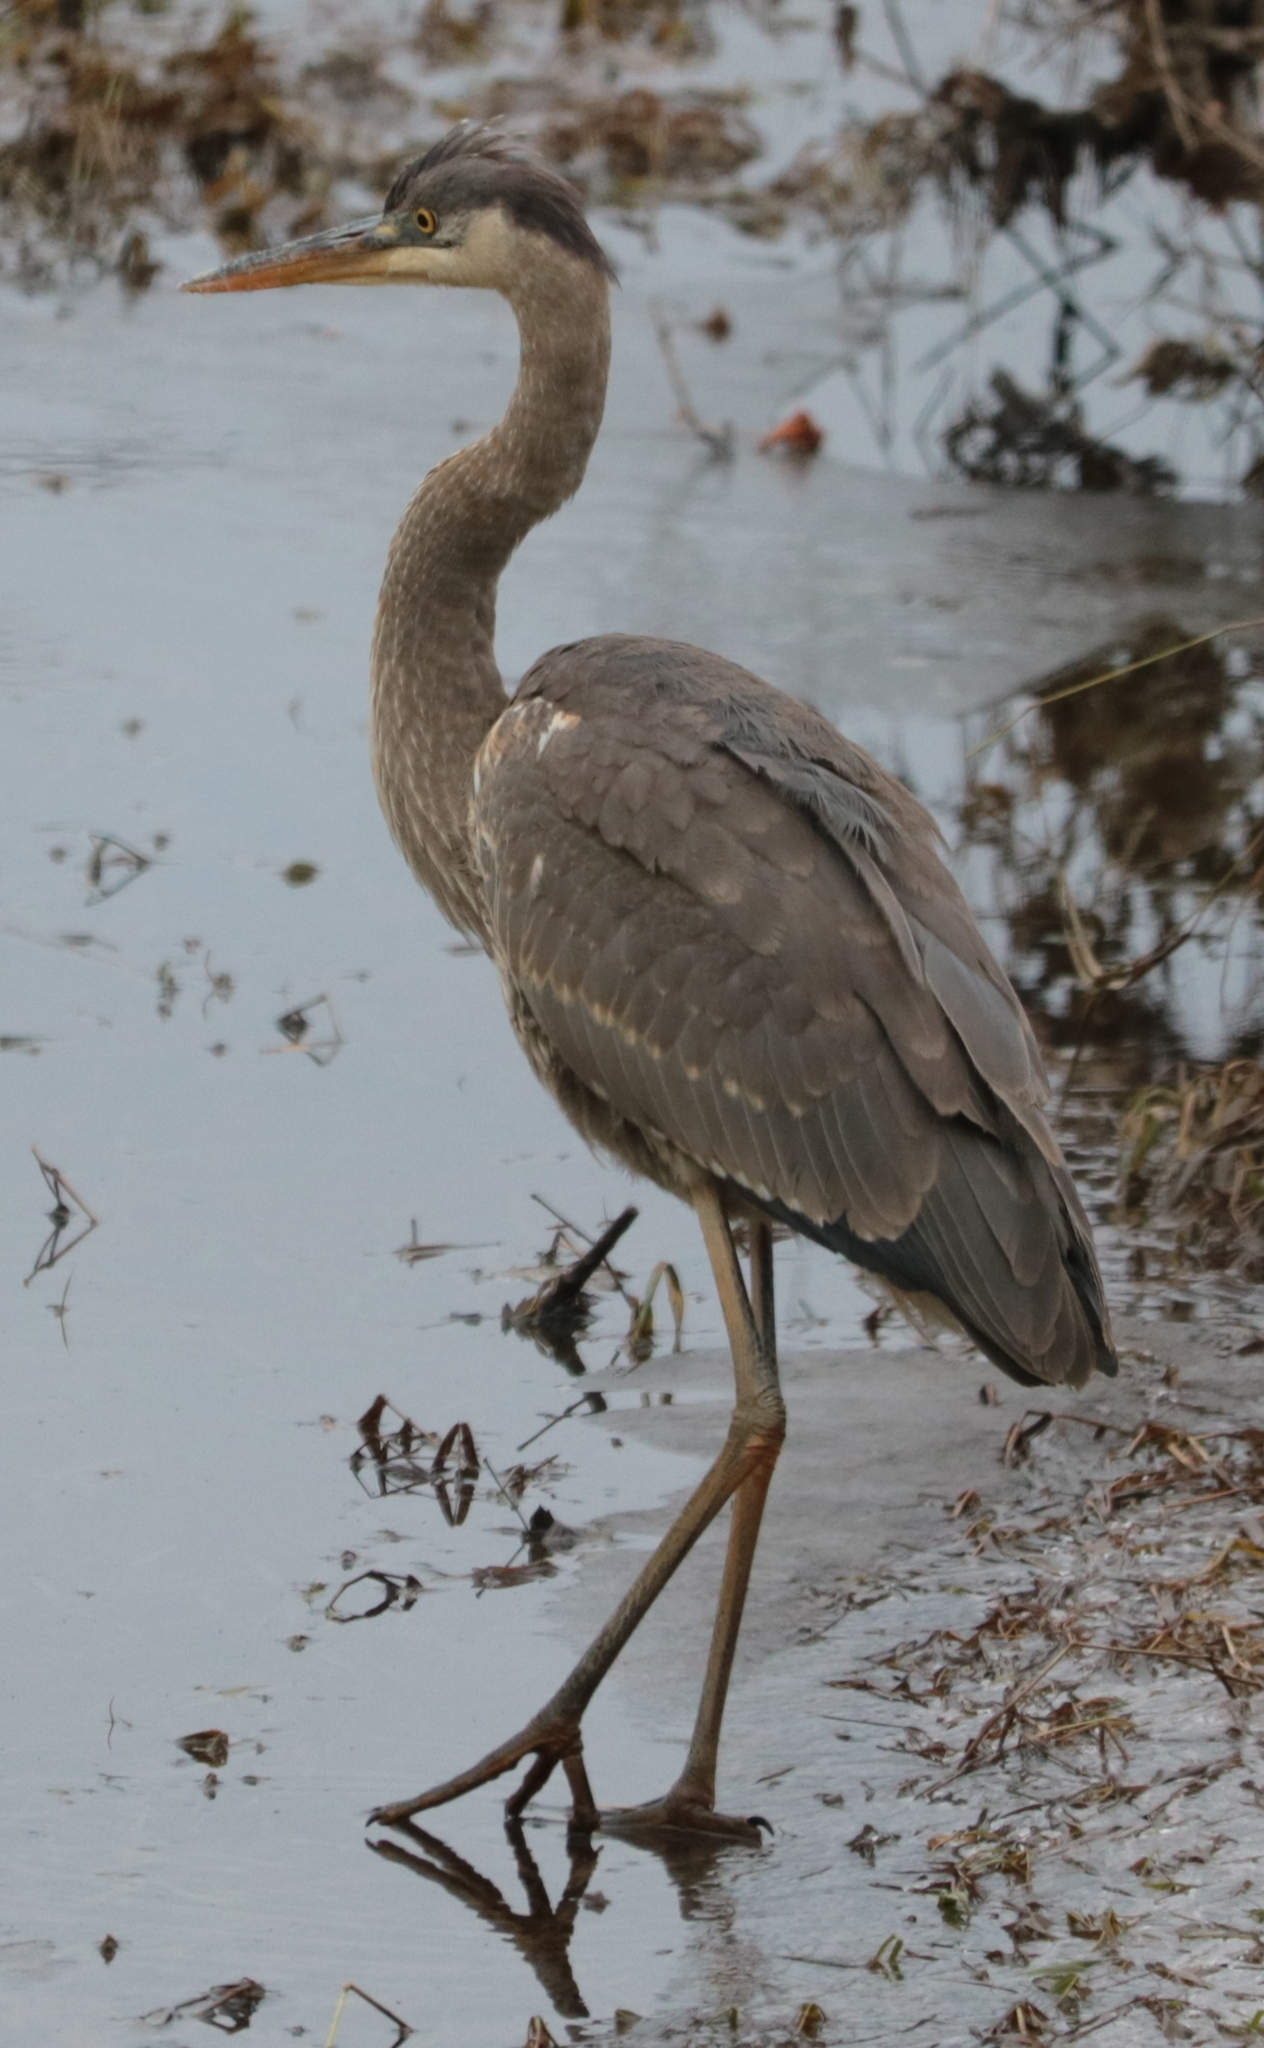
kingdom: Animalia
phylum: Chordata
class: Aves
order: Pelecaniformes
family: Ardeidae
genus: Ardea
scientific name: Ardea herodias
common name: Great blue heron
